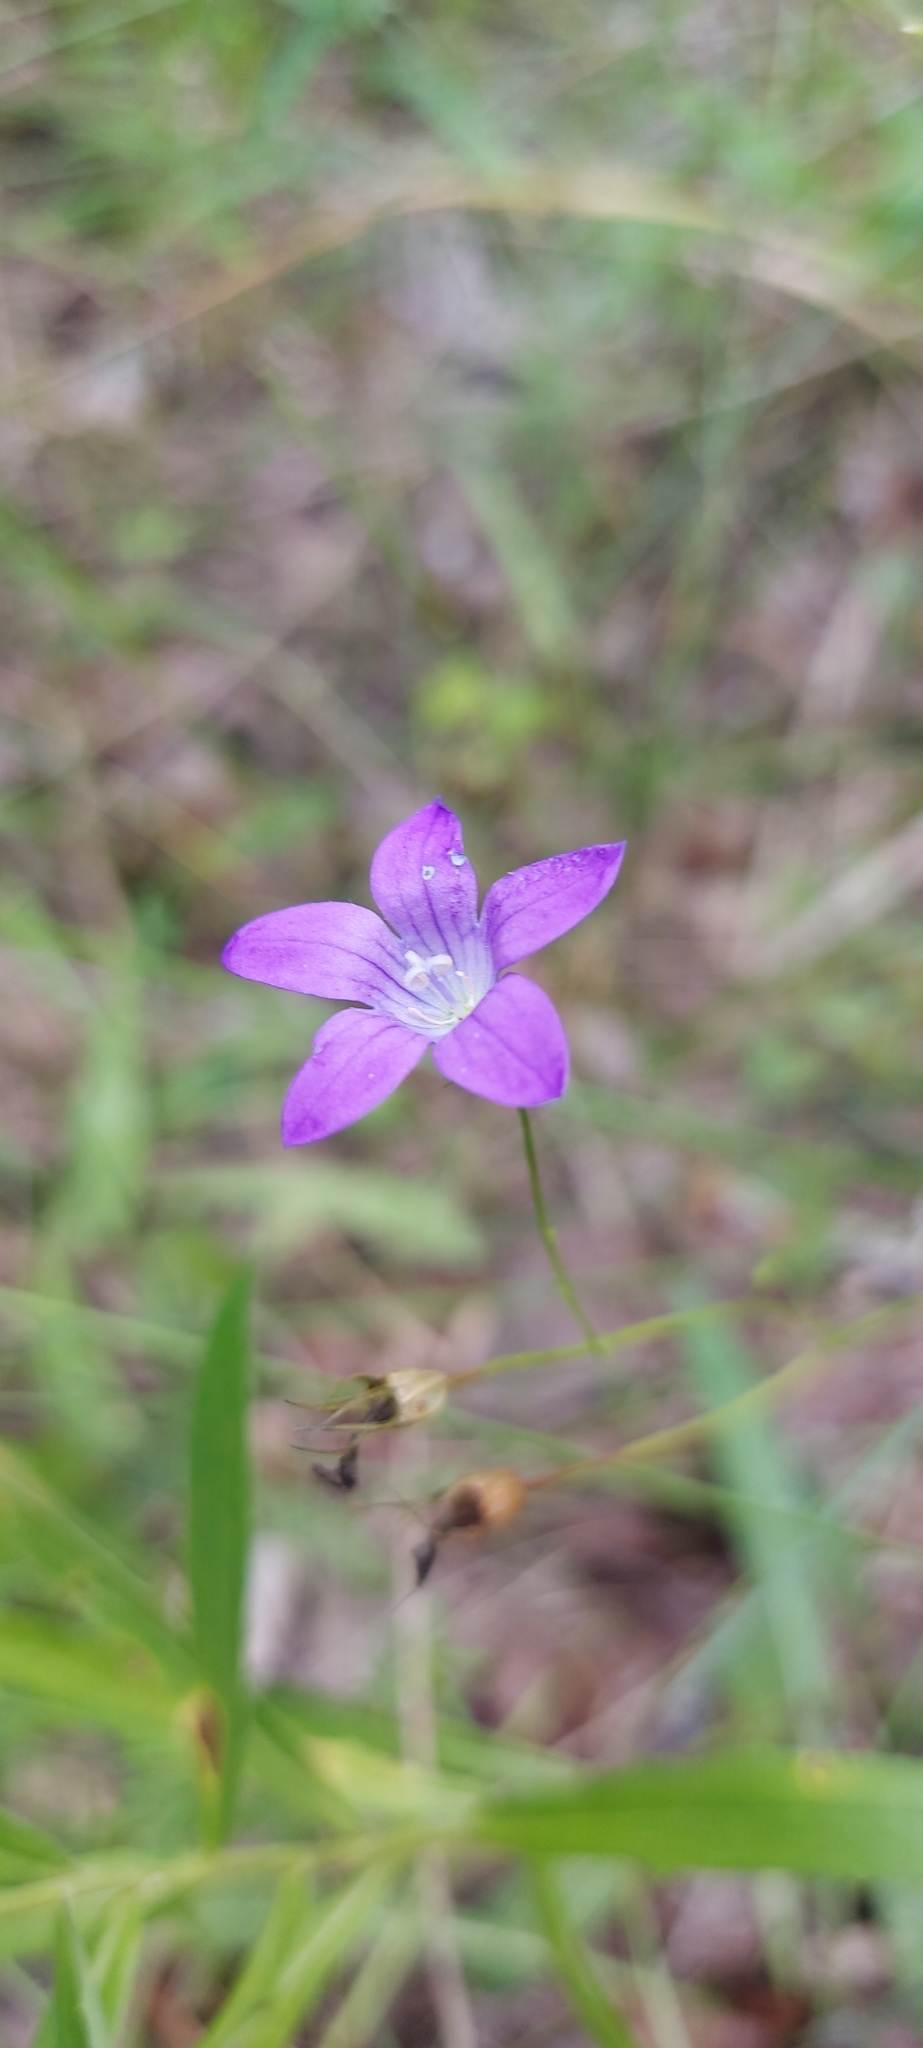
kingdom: Plantae
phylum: Tracheophyta
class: Magnoliopsida
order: Asterales
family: Campanulaceae
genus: Campanula
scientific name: Campanula patula
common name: Spreading bellflower
